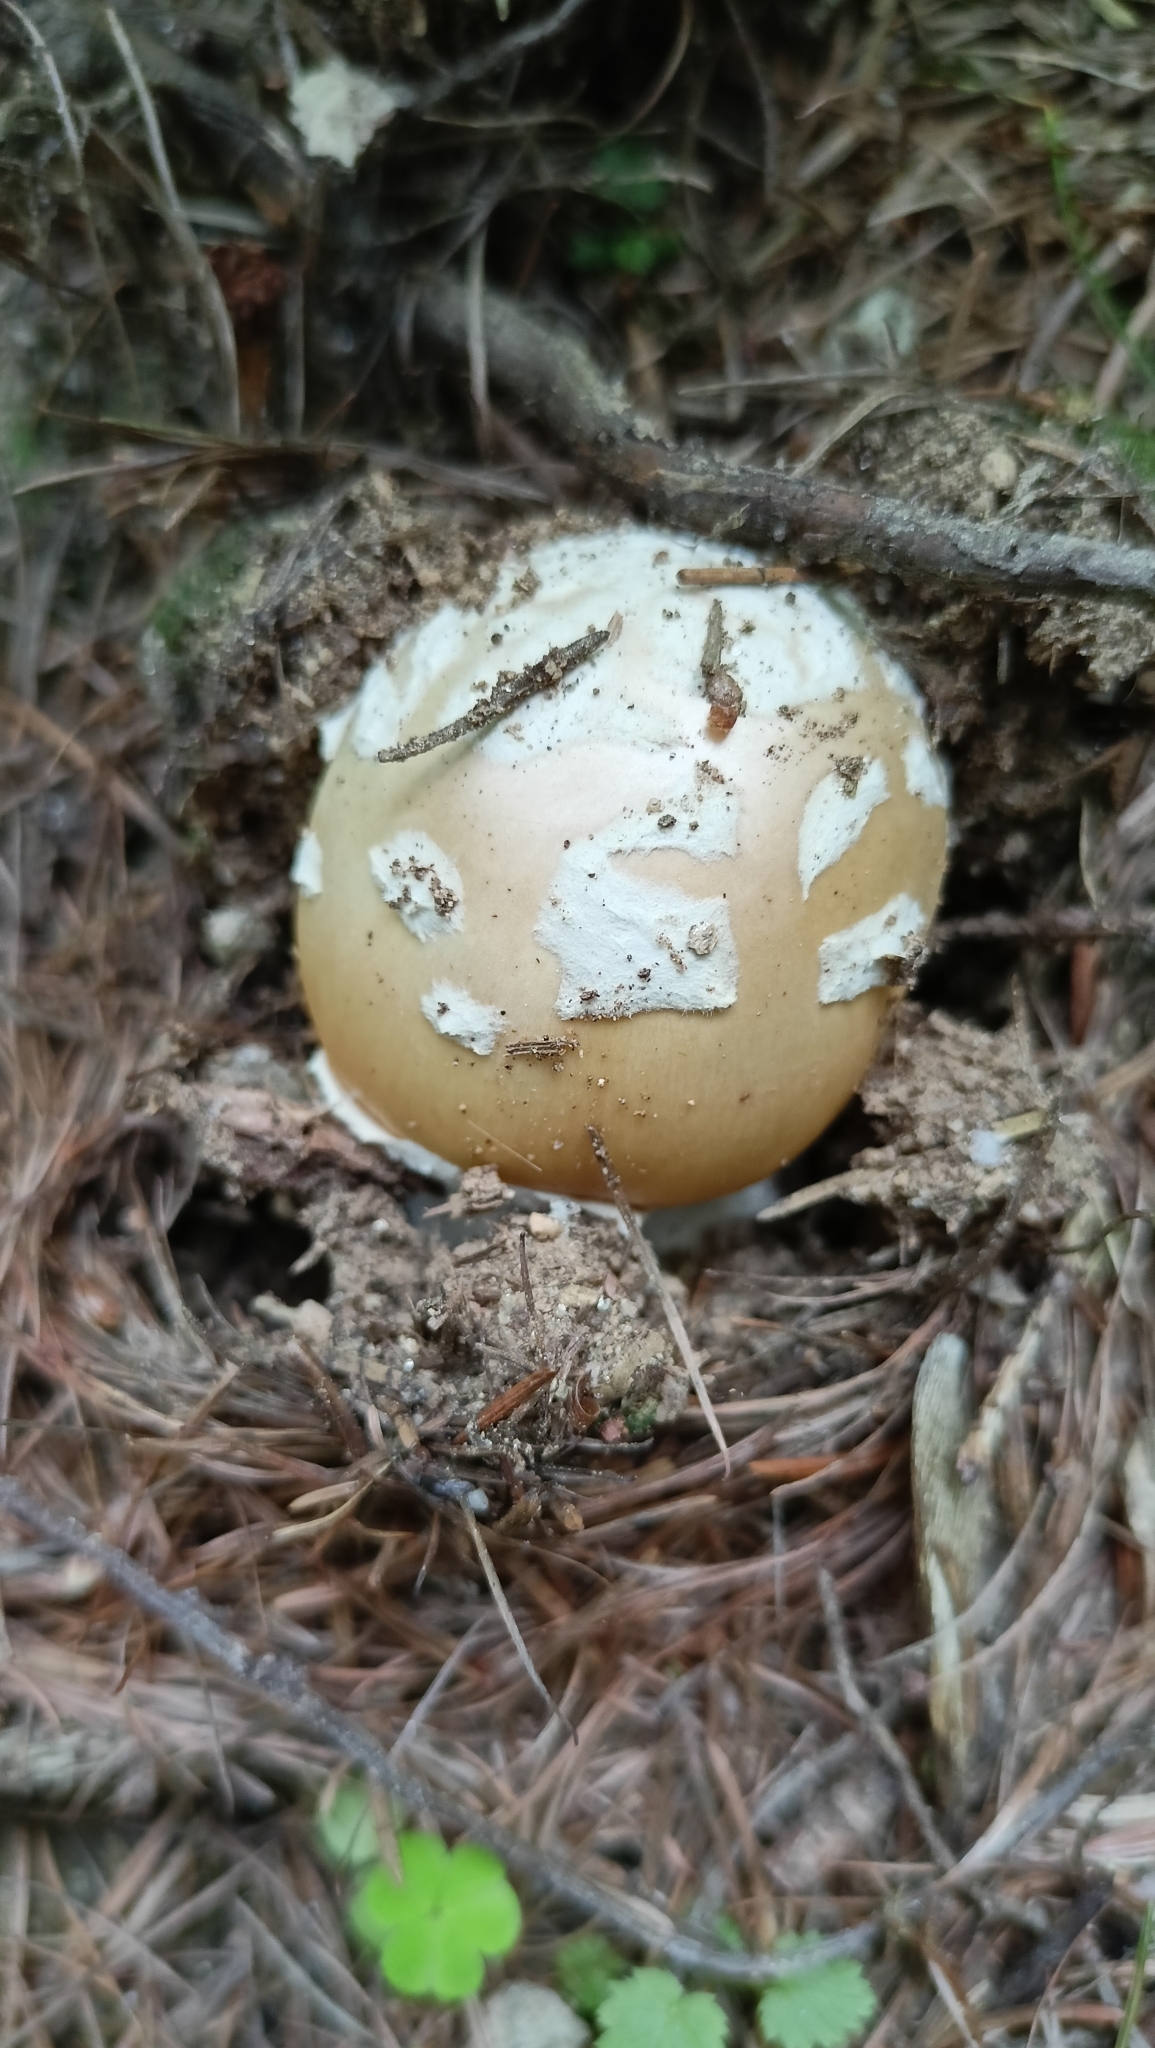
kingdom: Fungi
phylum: Basidiomycota
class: Agaricomycetes
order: Agaricales
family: Amanitaceae
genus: Amanita
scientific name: Amanita gemmata
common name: Jewelled amanita
